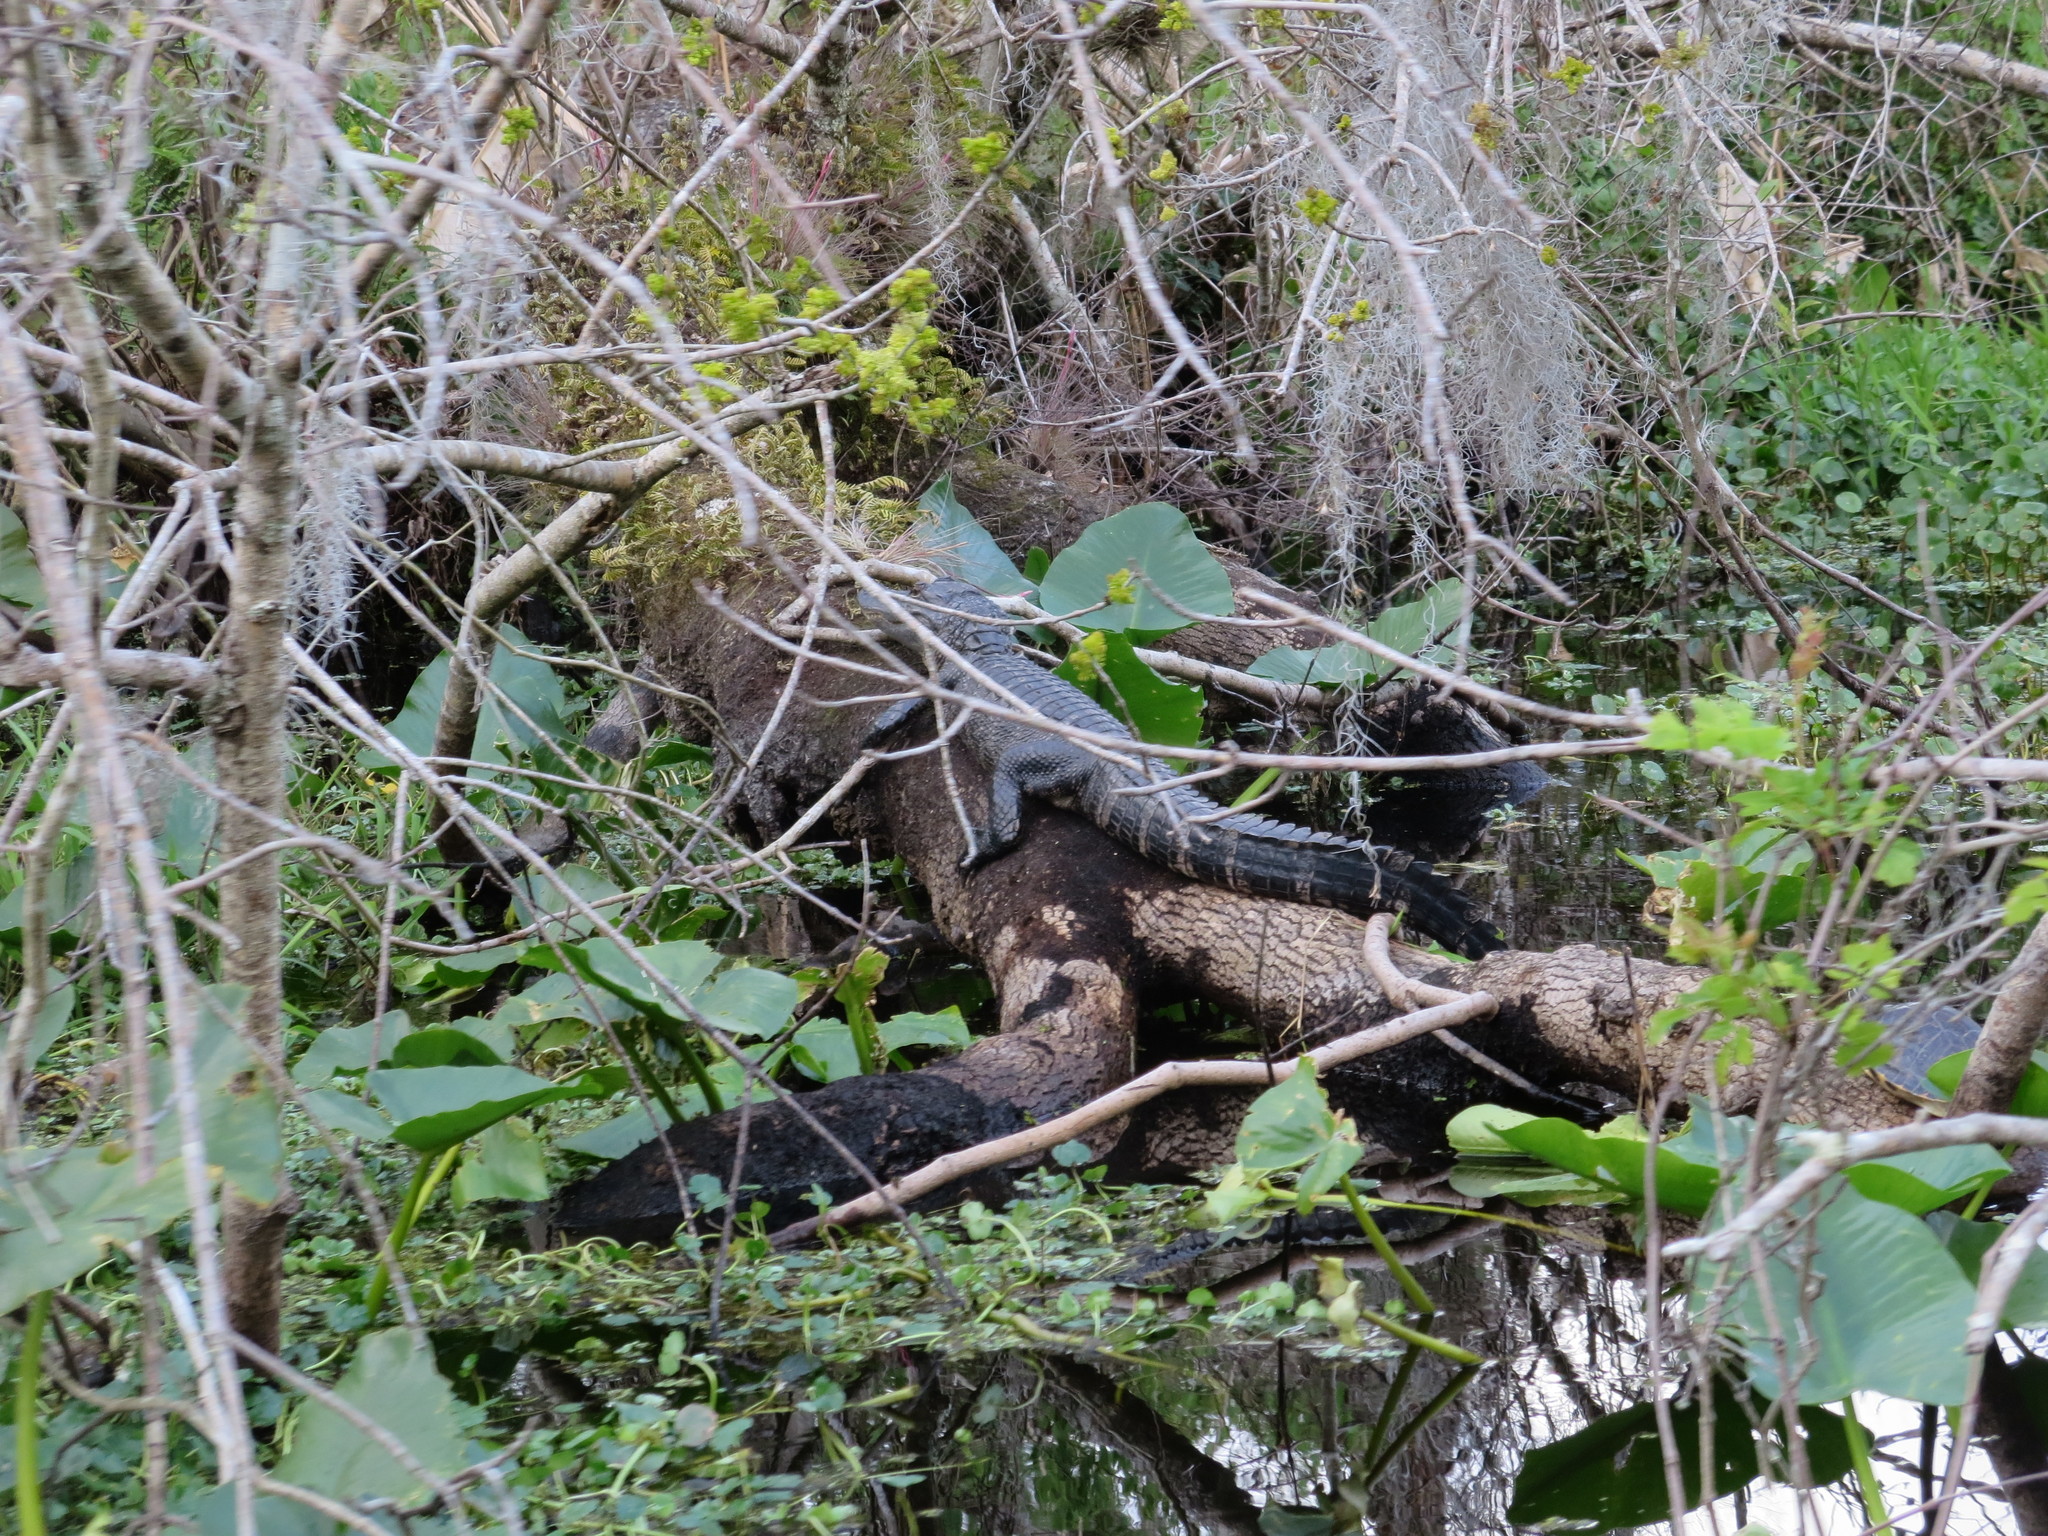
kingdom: Animalia
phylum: Chordata
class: Crocodylia
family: Alligatoridae
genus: Alligator
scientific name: Alligator mississippiensis
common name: American alligator
